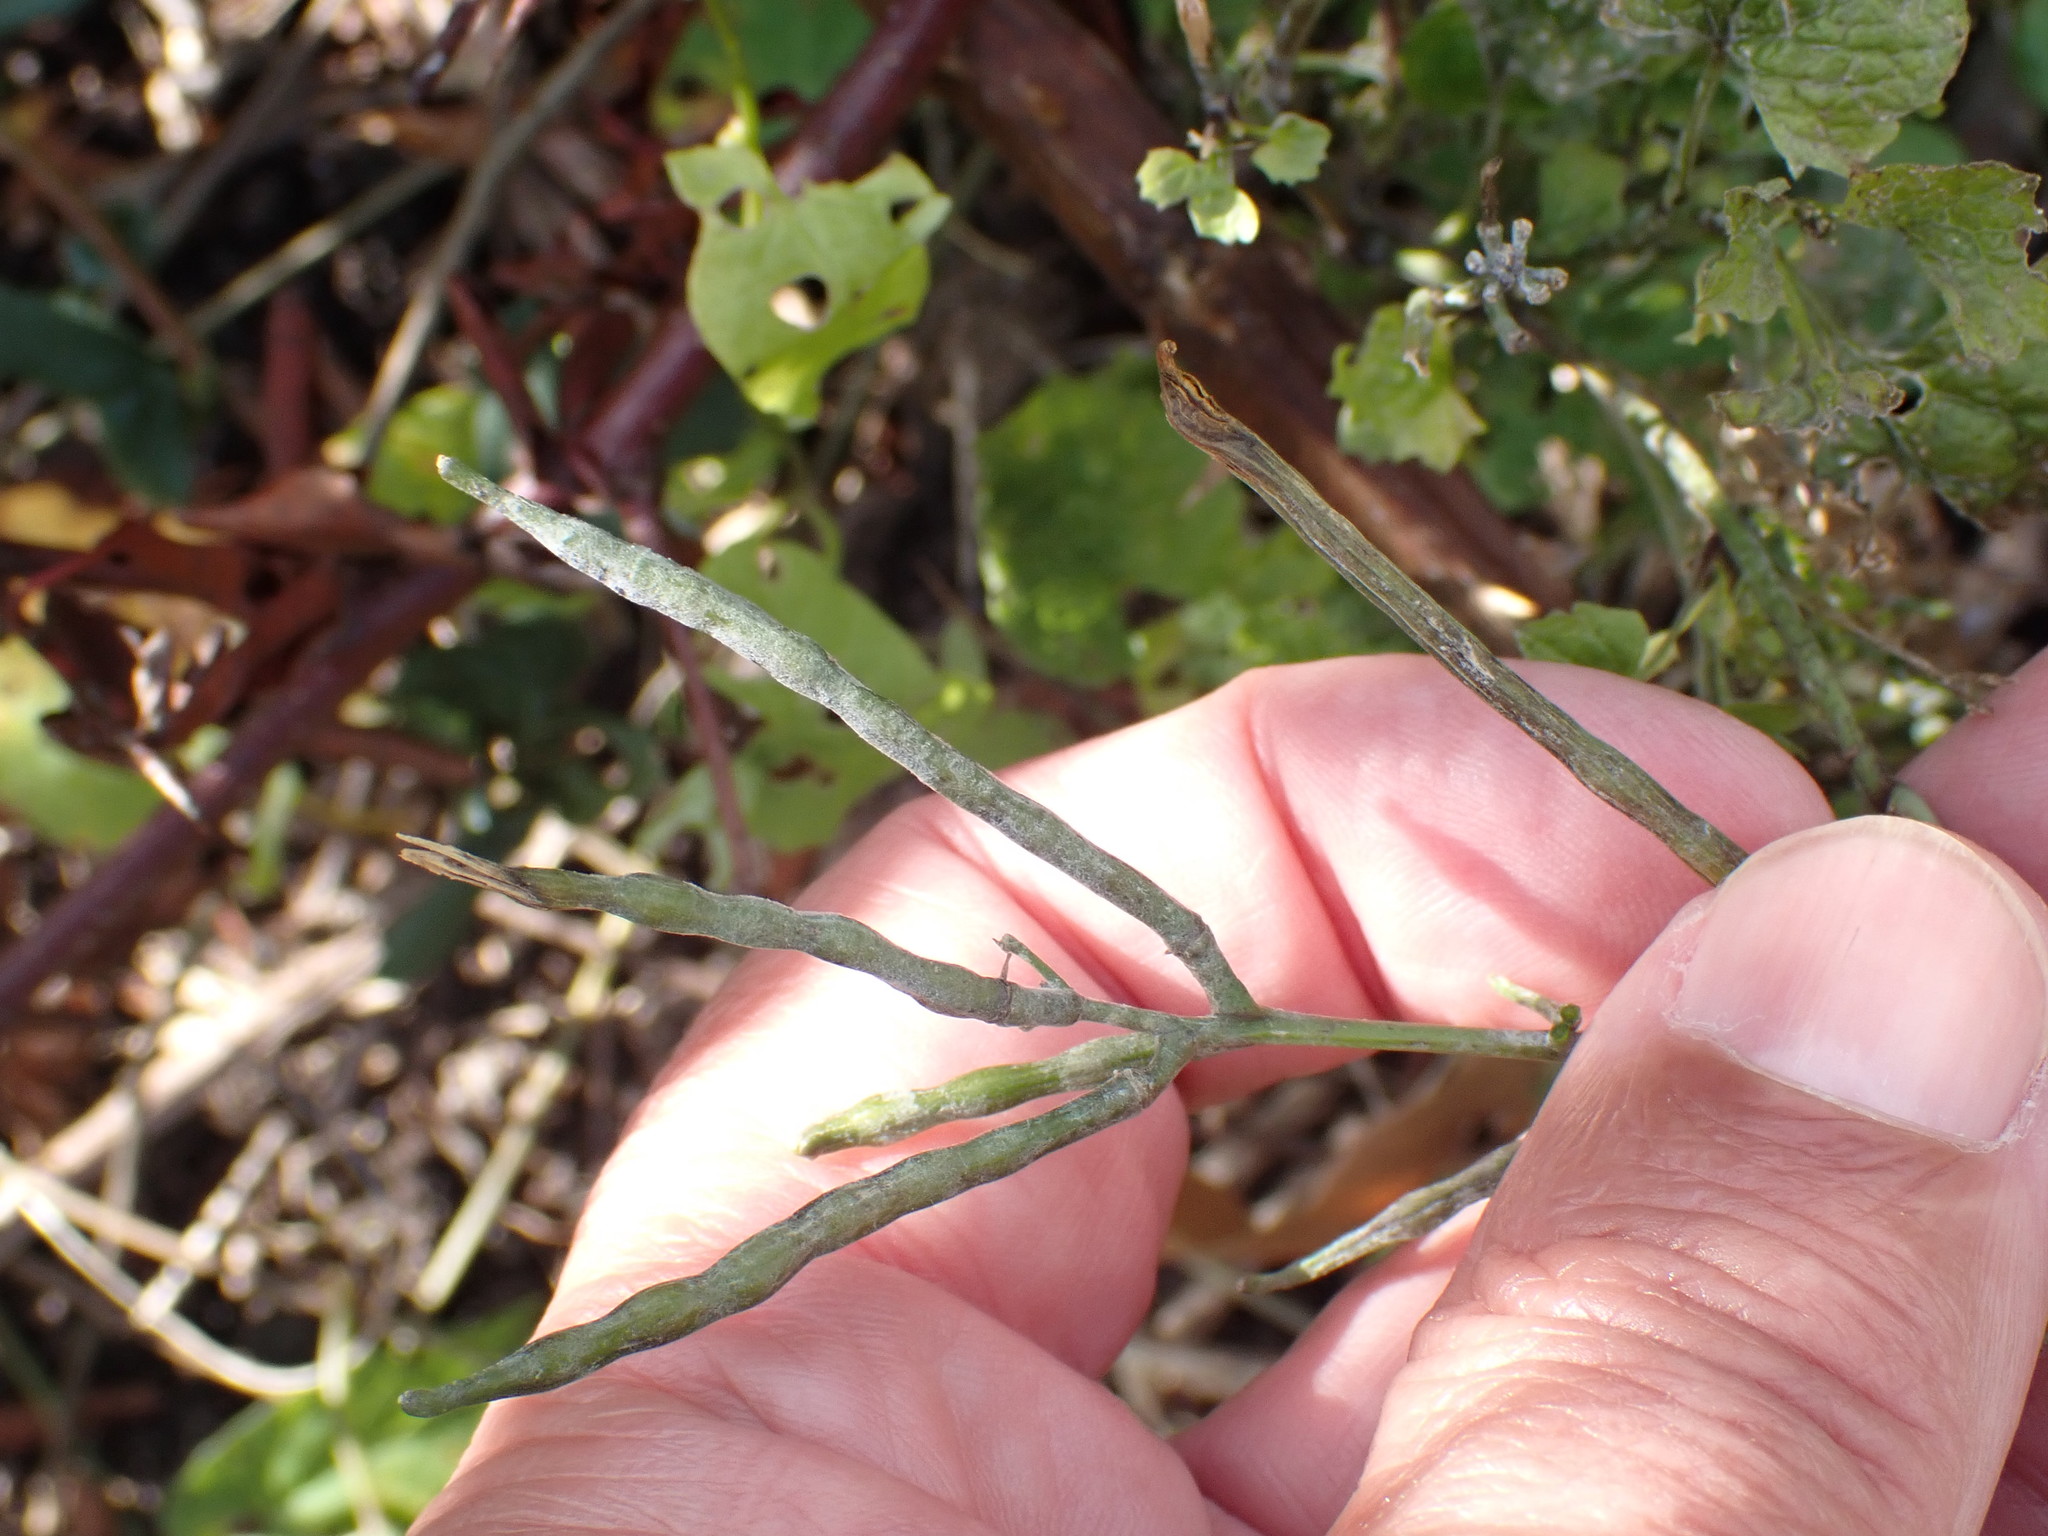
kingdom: Plantae
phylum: Tracheophyta
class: Magnoliopsida
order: Brassicales
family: Brassicaceae
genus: Alliaria
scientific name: Alliaria petiolata
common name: Garlic mustard
